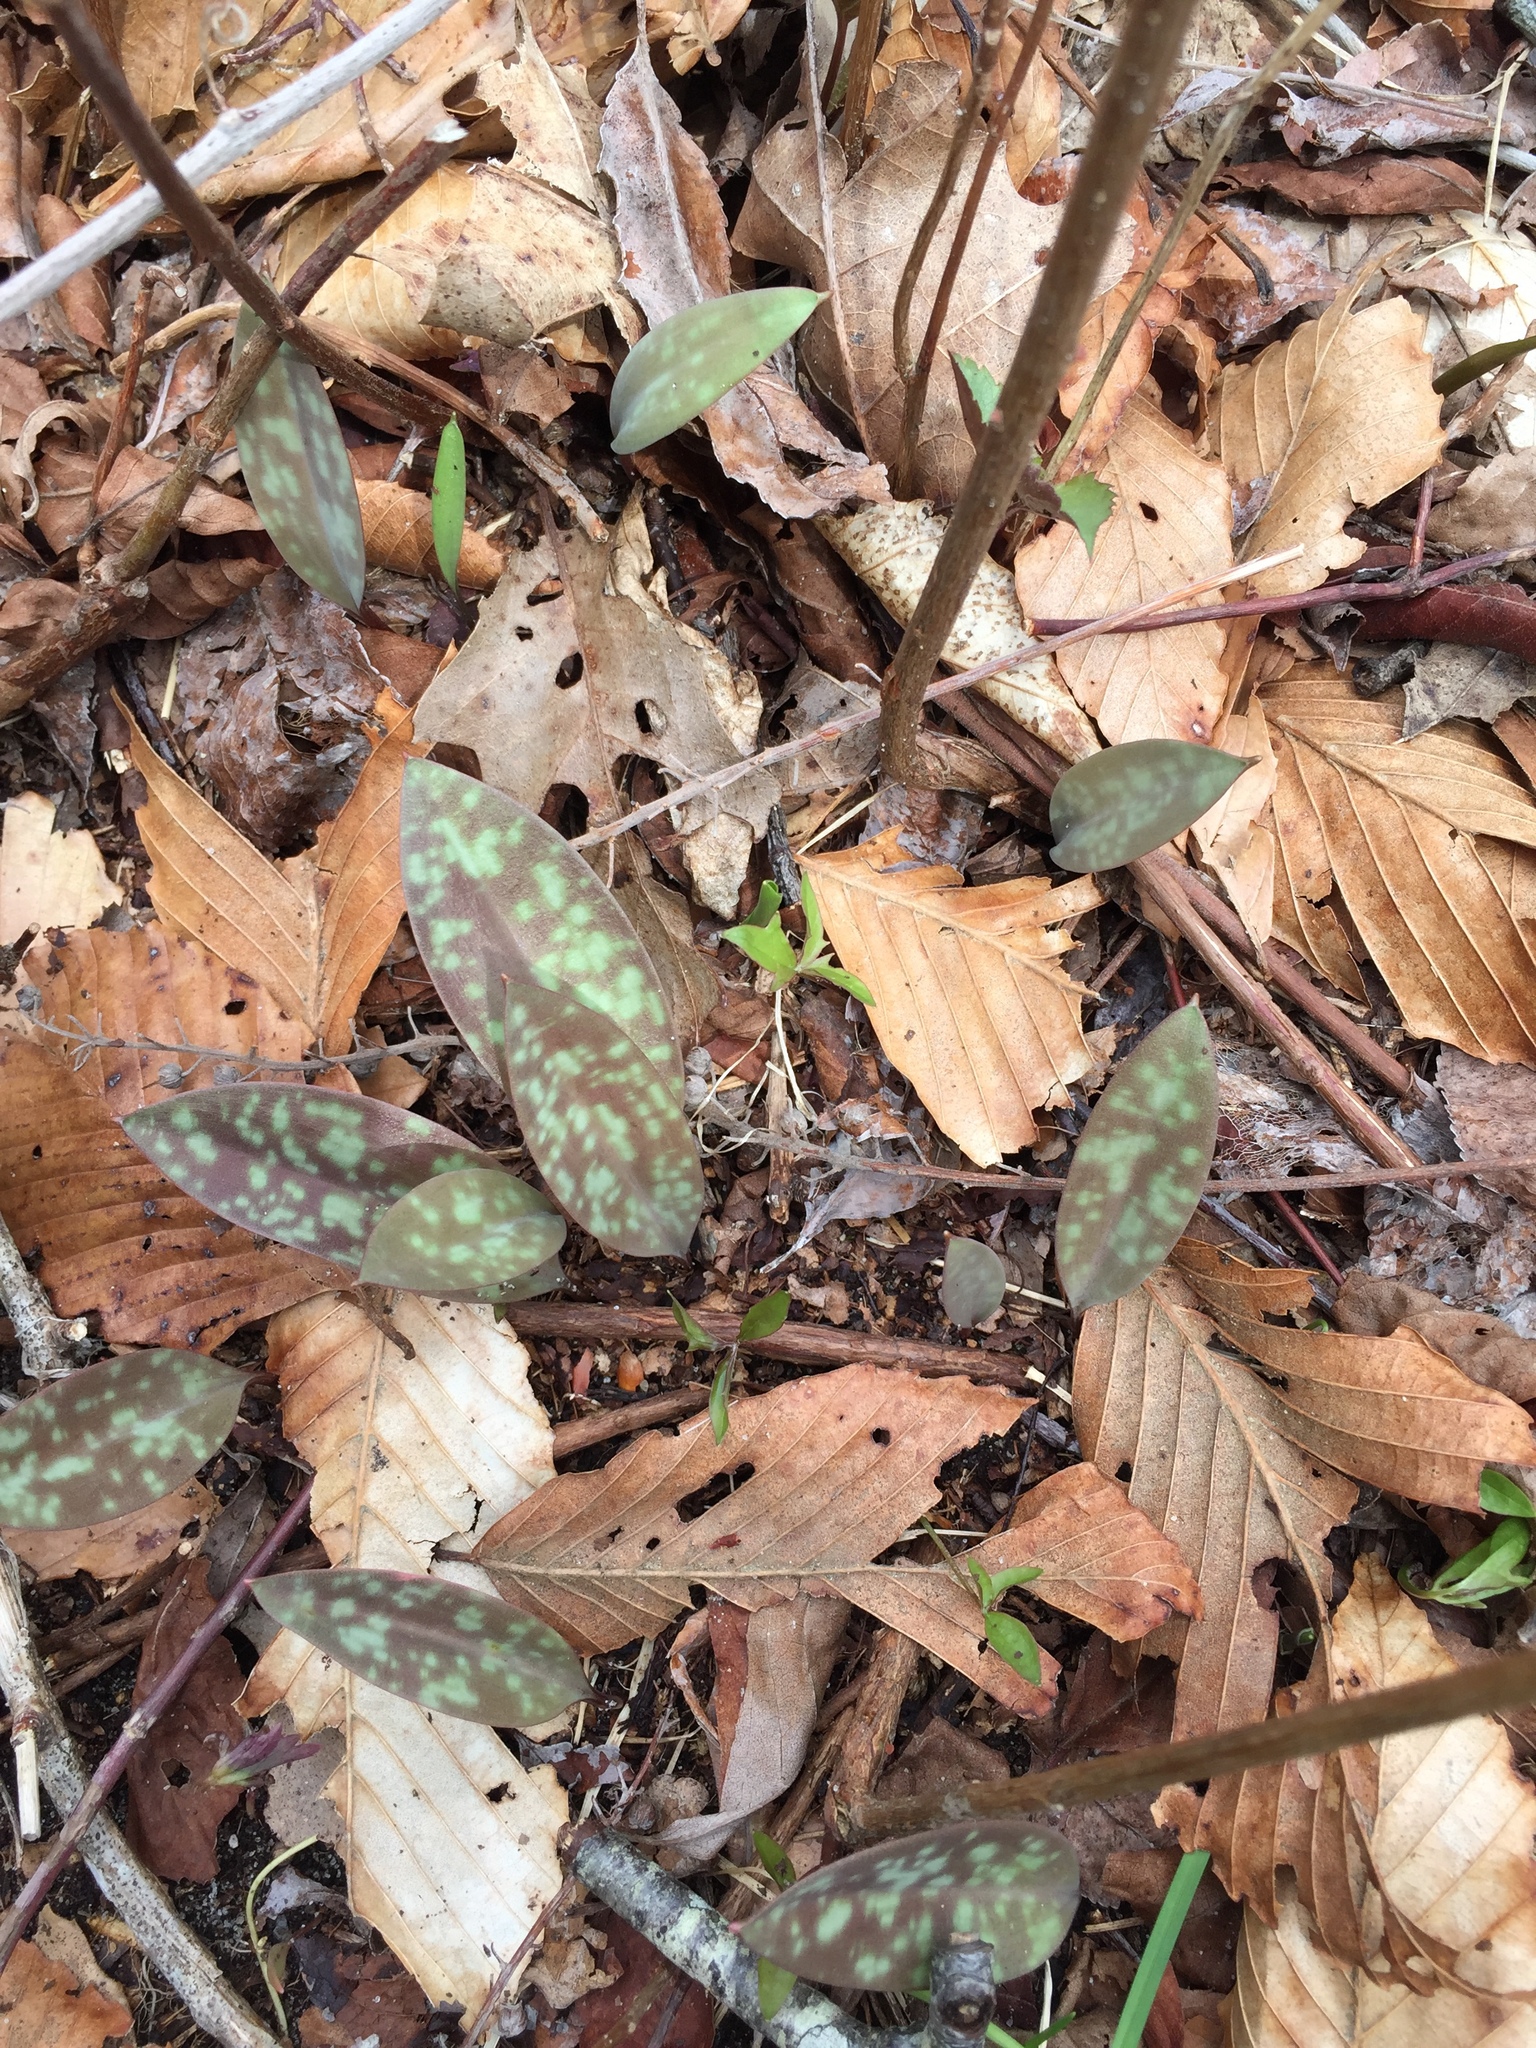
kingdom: Plantae
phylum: Tracheophyta
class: Liliopsida
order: Liliales
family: Liliaceae
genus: Erythronium
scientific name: Erythronium americanum
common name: Yellow adder's-tongue
